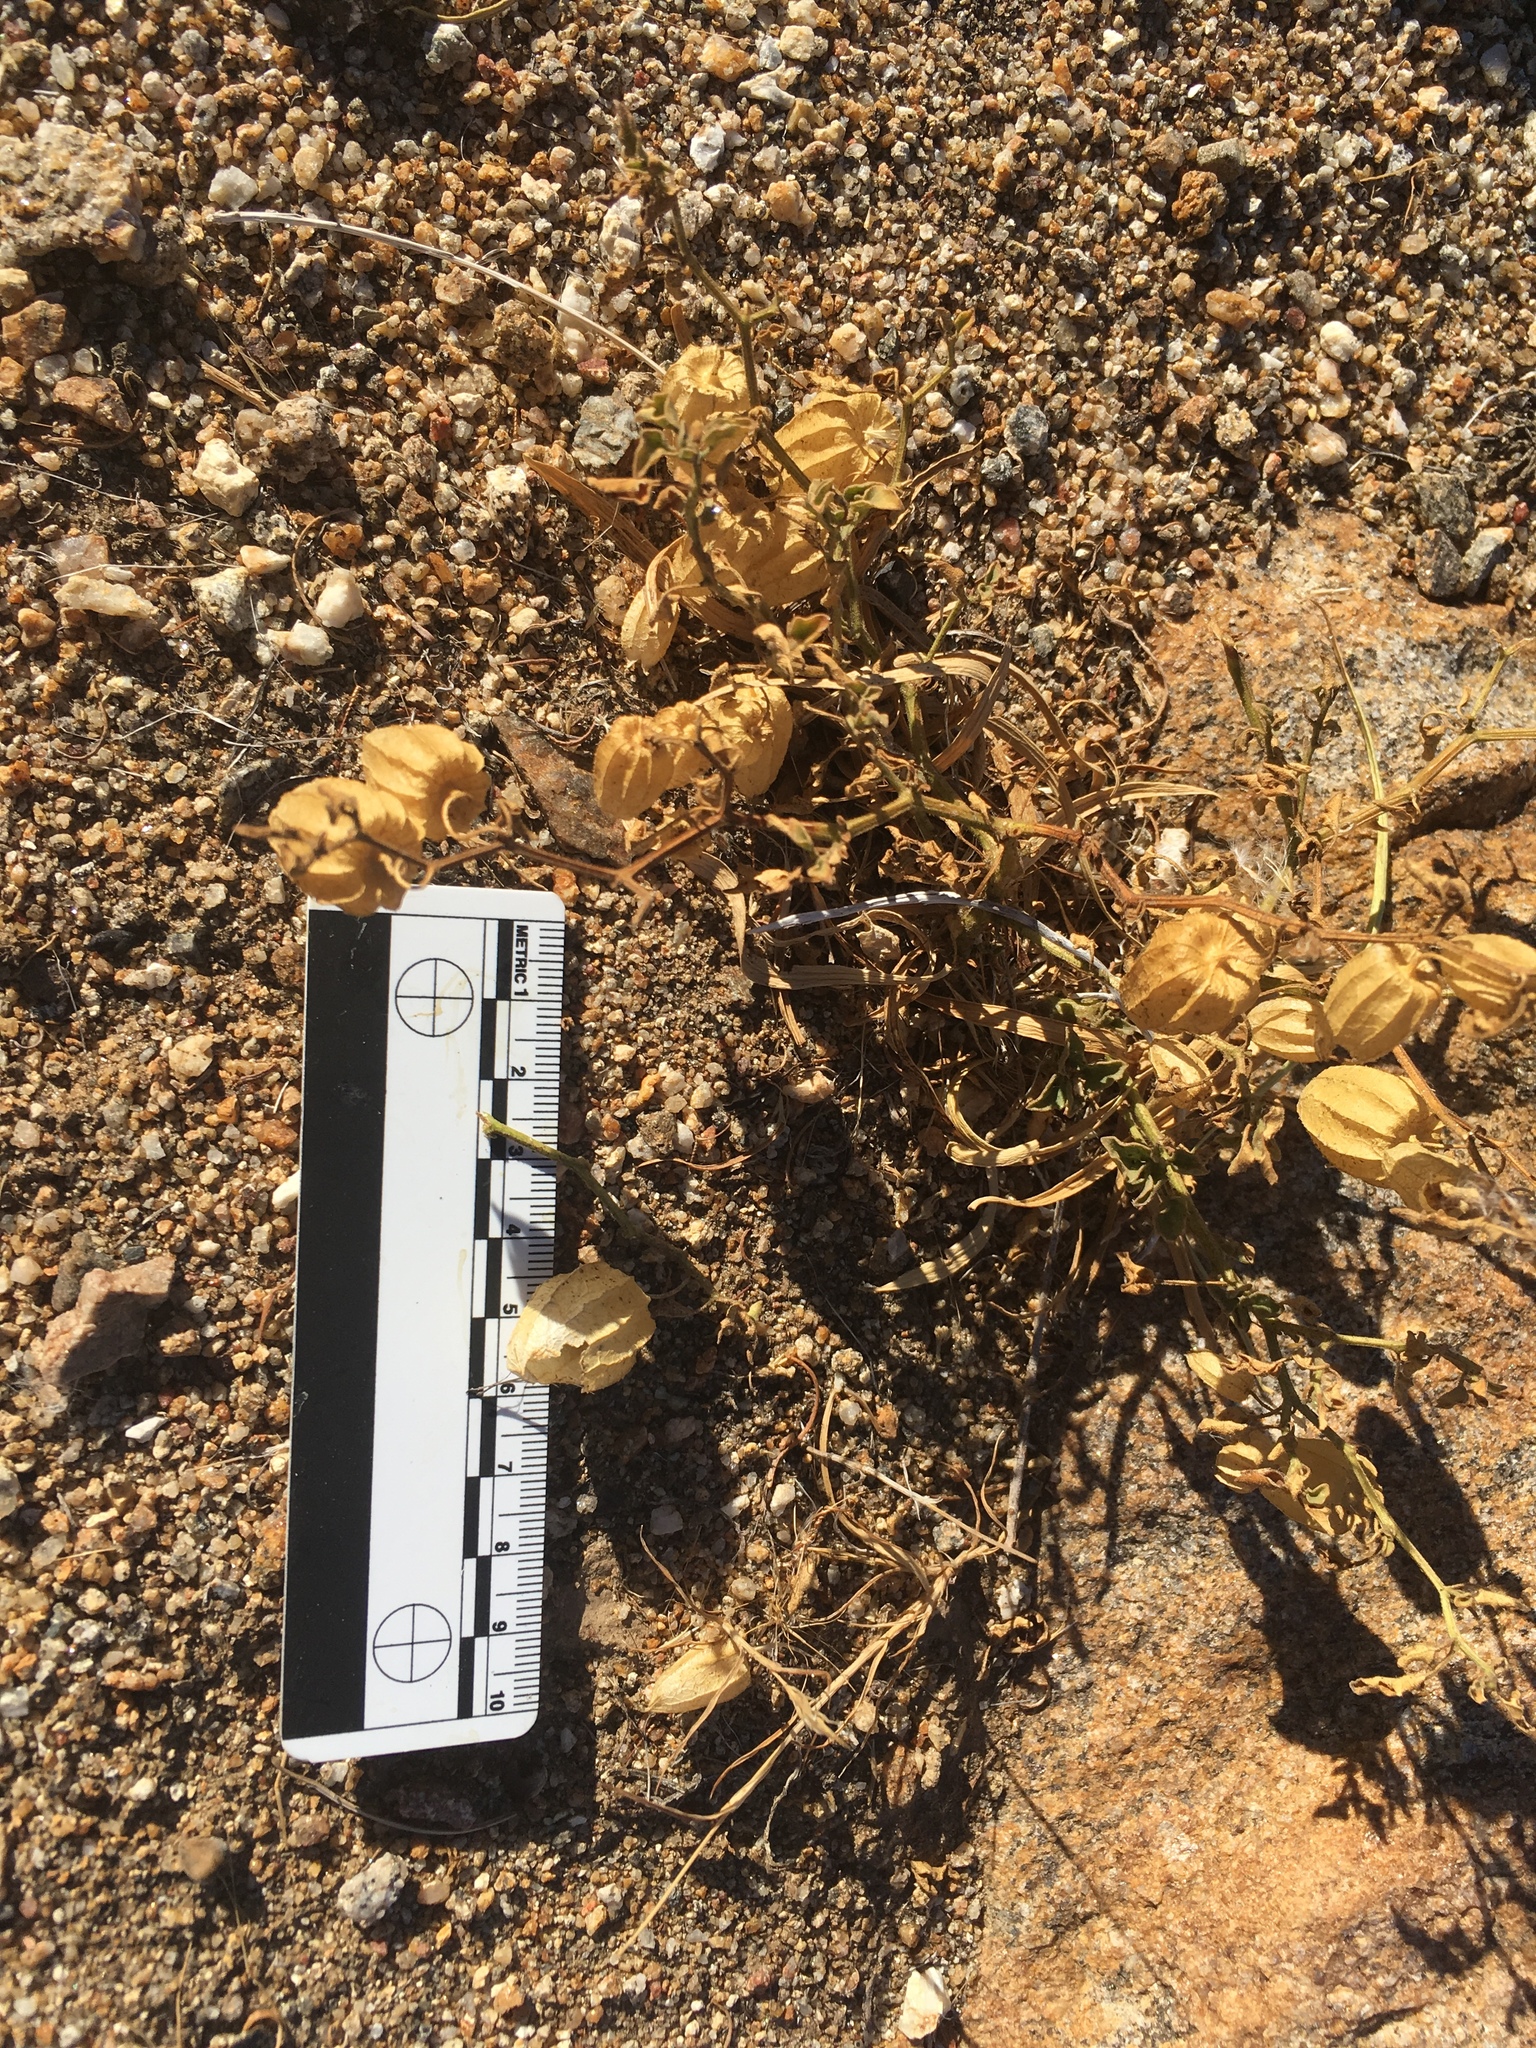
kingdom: Plantae
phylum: Tracheophyta
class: Magnoliopsida
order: Solanales
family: Solanaceae
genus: Physalis
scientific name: Physalis crassifolia
